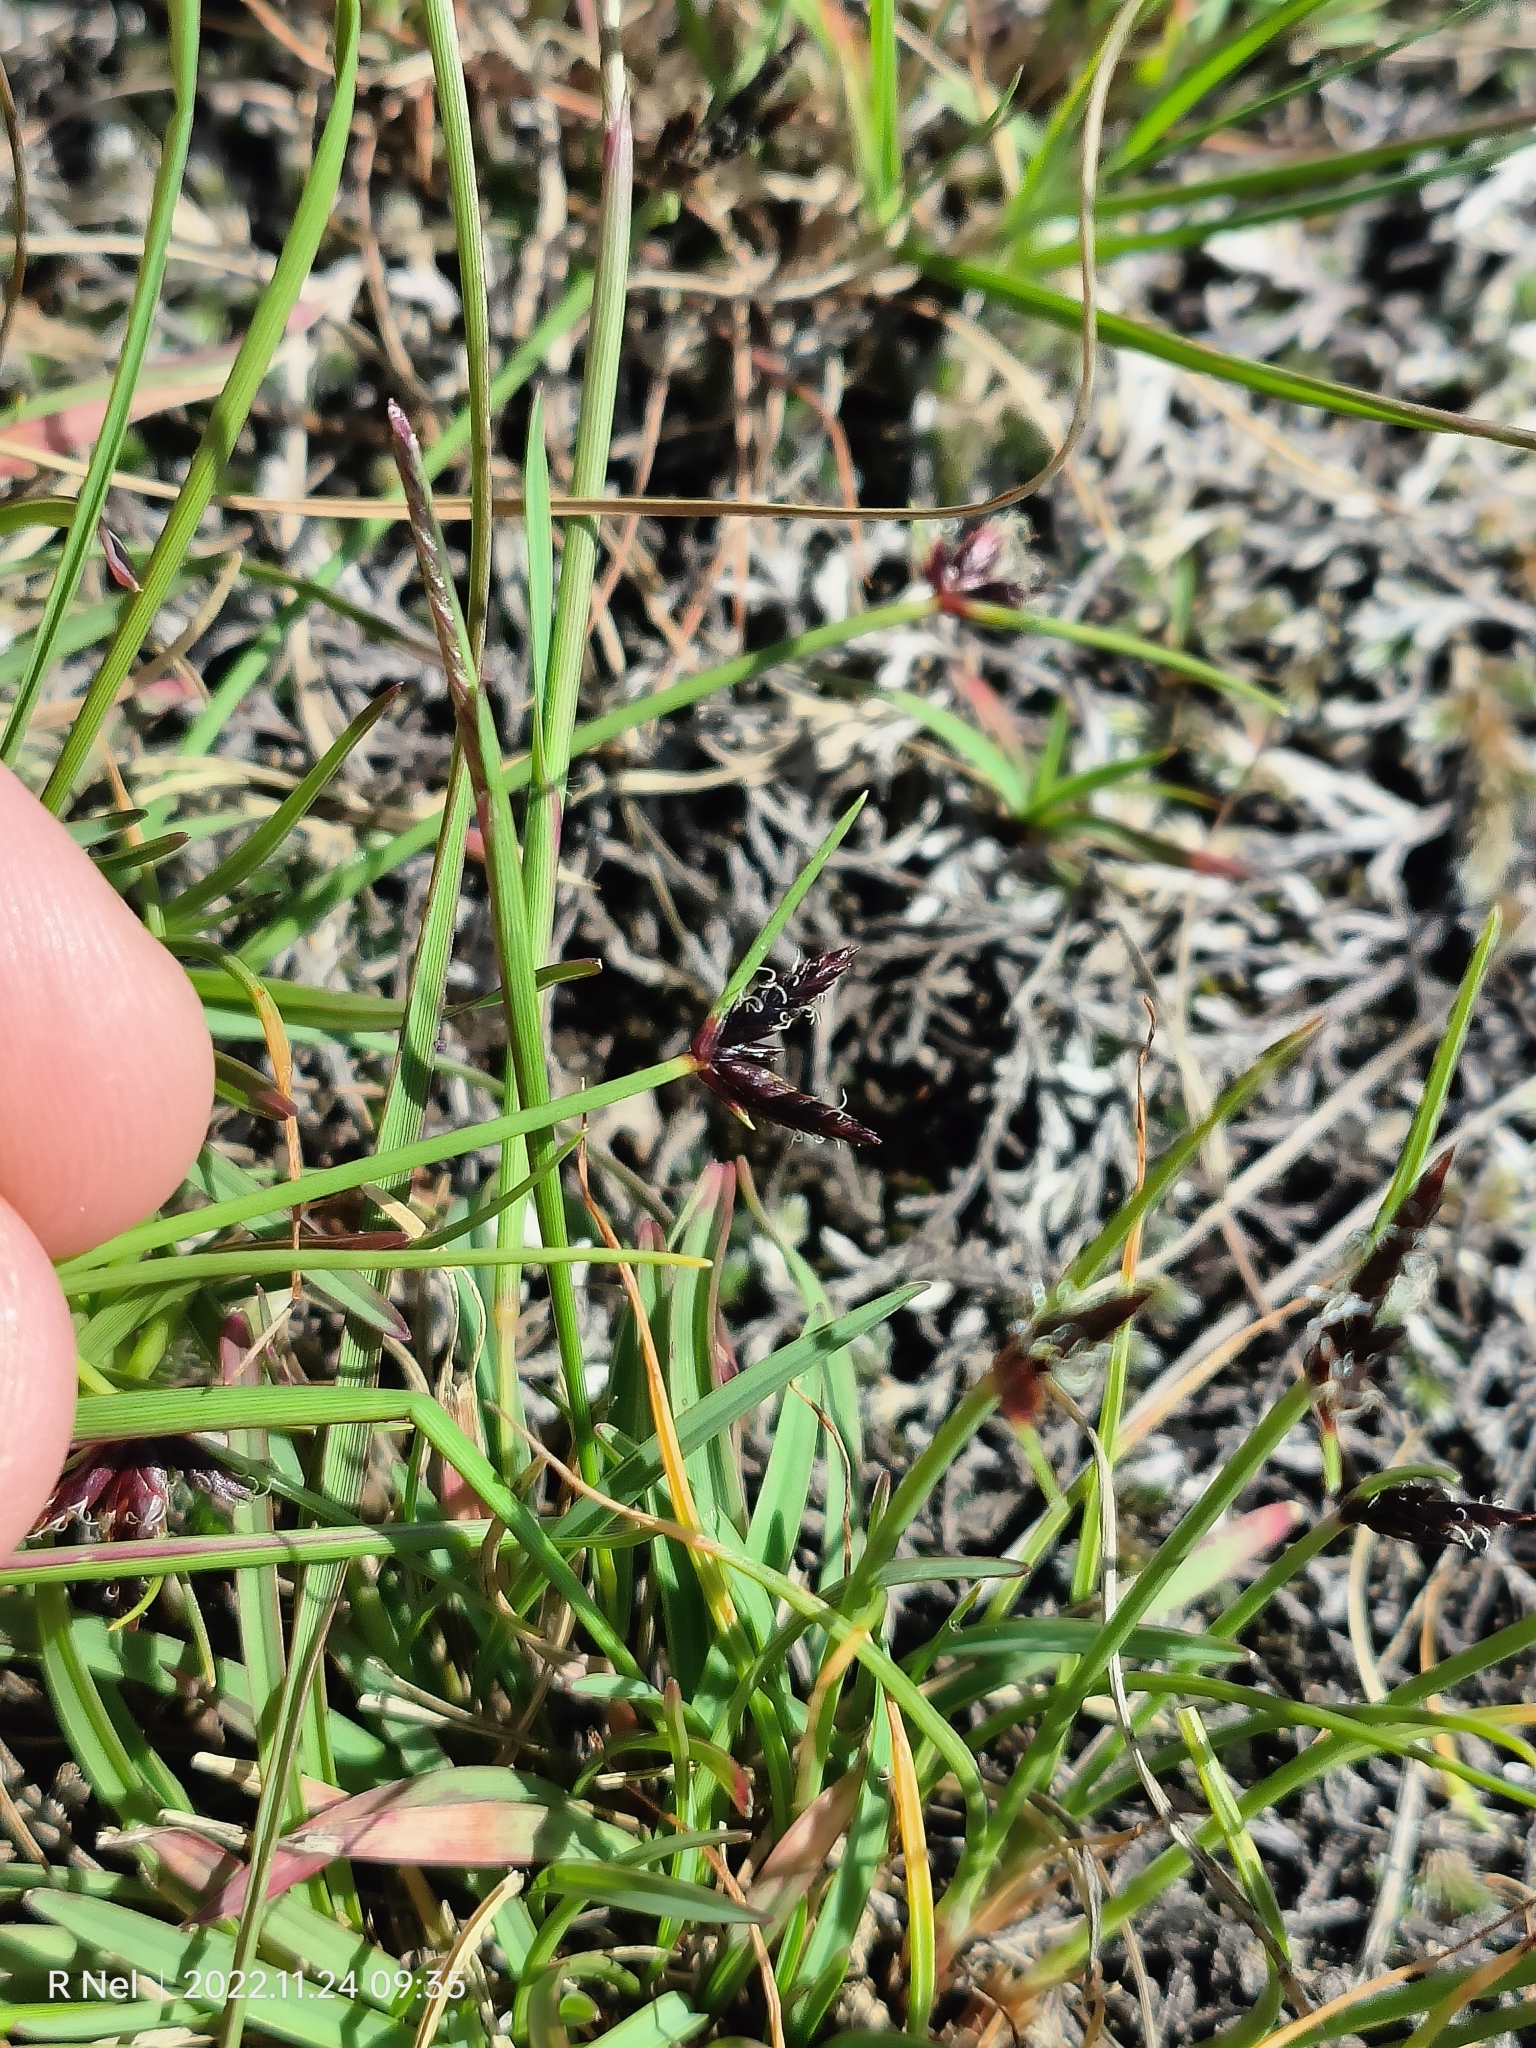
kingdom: Plantae
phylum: Tracheophyta
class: Liliopsida
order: Poales
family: Cyperaceae
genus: Cyperus
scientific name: Cyperus rupestris
